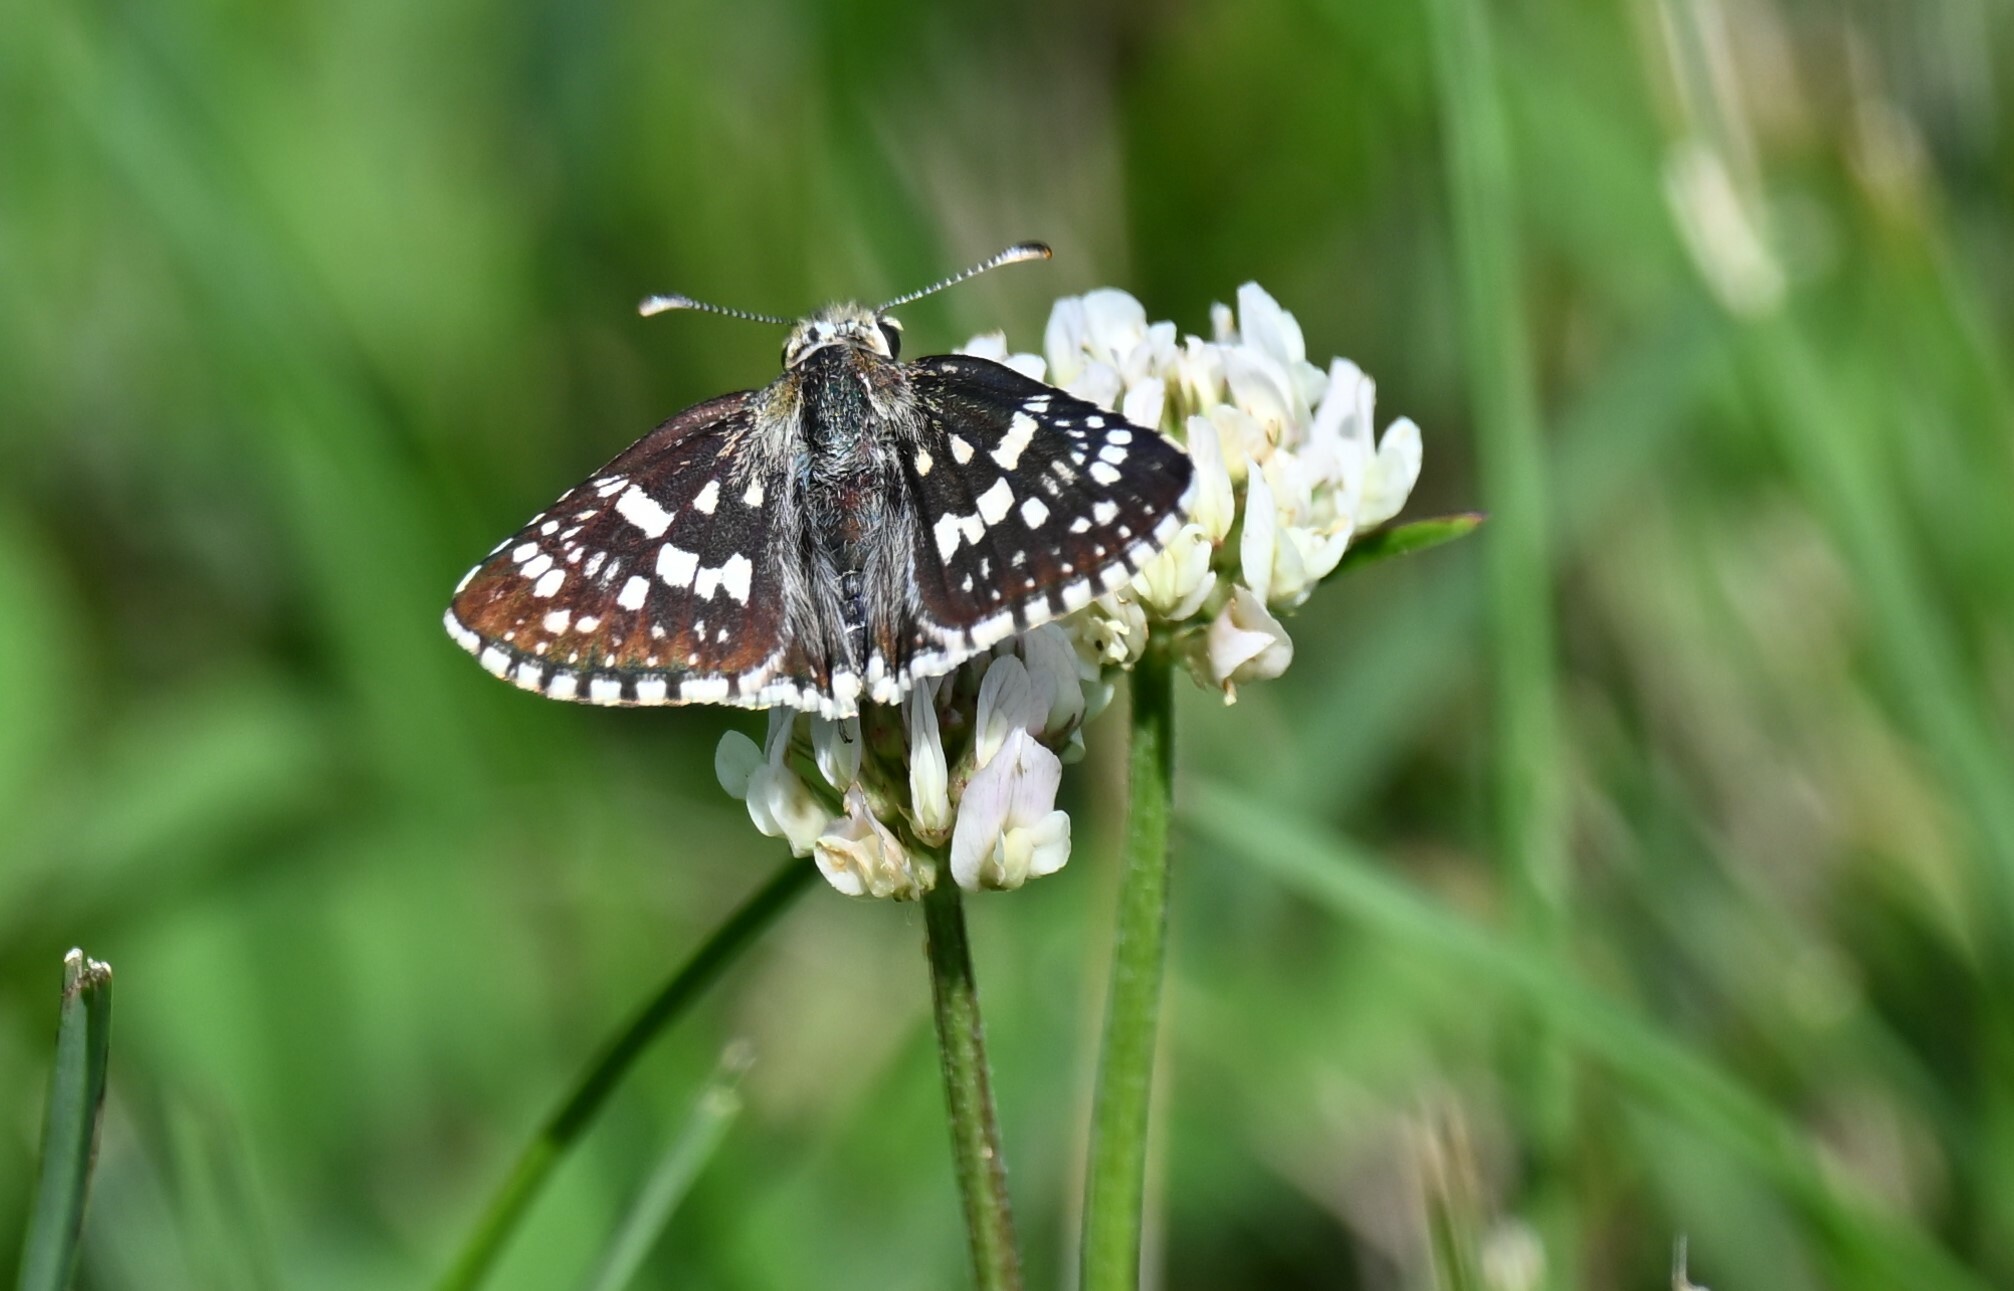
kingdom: Animalia
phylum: Arthropoda
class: Insecta
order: Lepidoptera
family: Hesperiidae
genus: Burnsius
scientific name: Burnsius communis
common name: Common checkered-skipper
